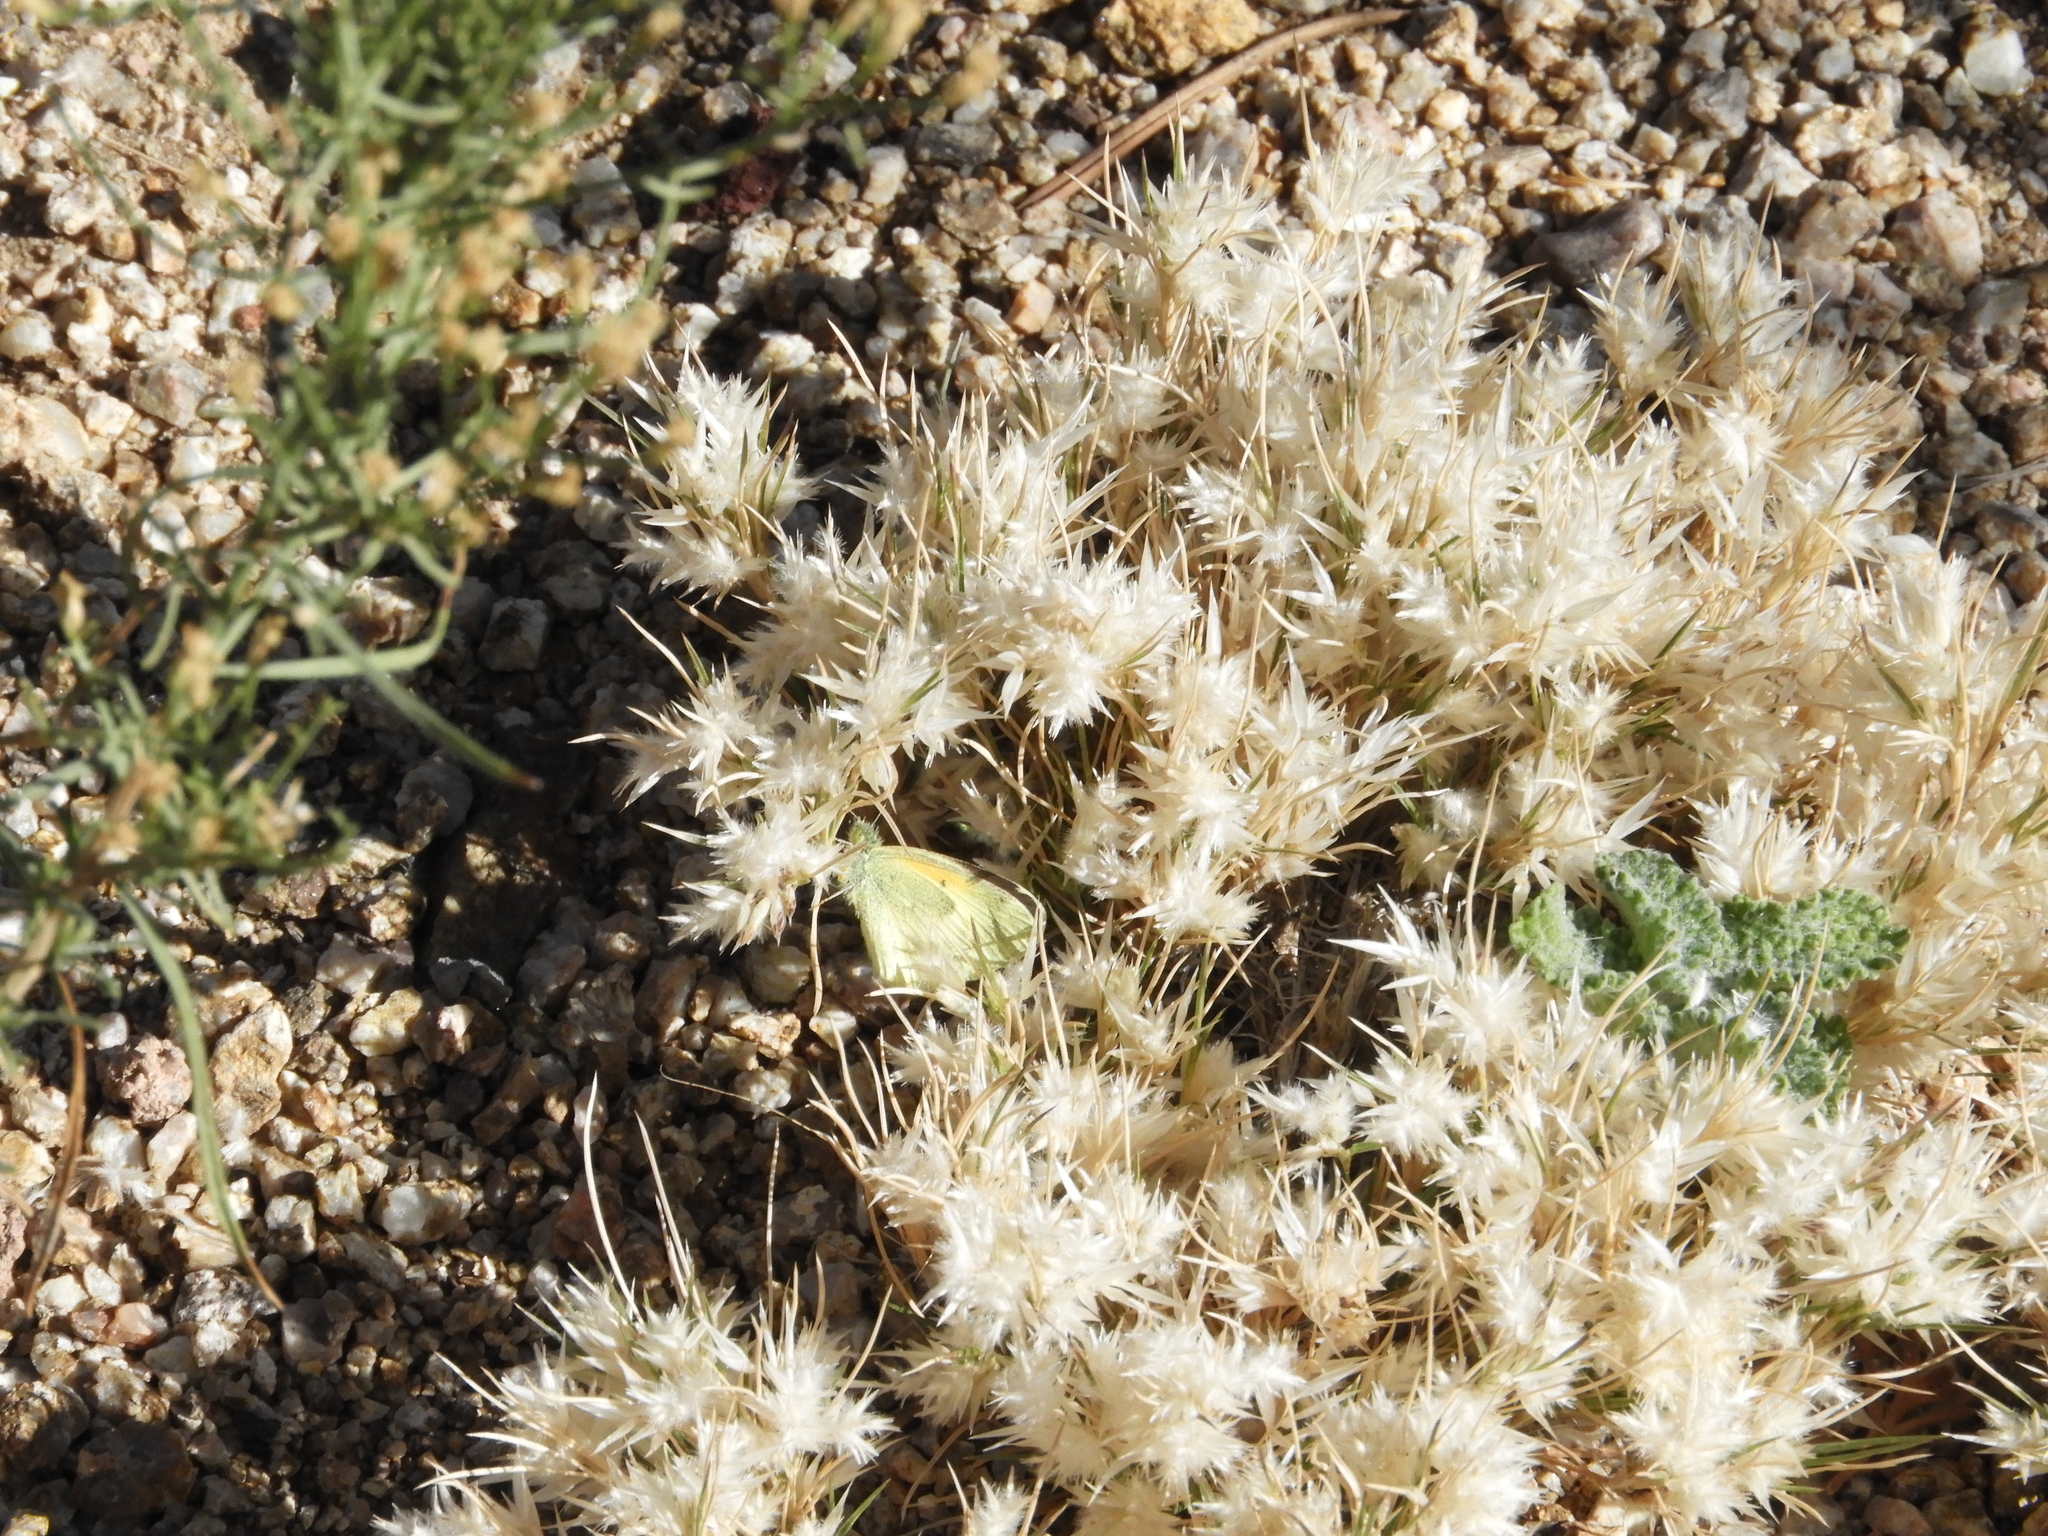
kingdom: Animalia
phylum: Arthropoda
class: Insecta
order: Lepidoptera
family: Pieridae
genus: Nathalis
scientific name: Nathalis iole
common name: Dainty sulphur
